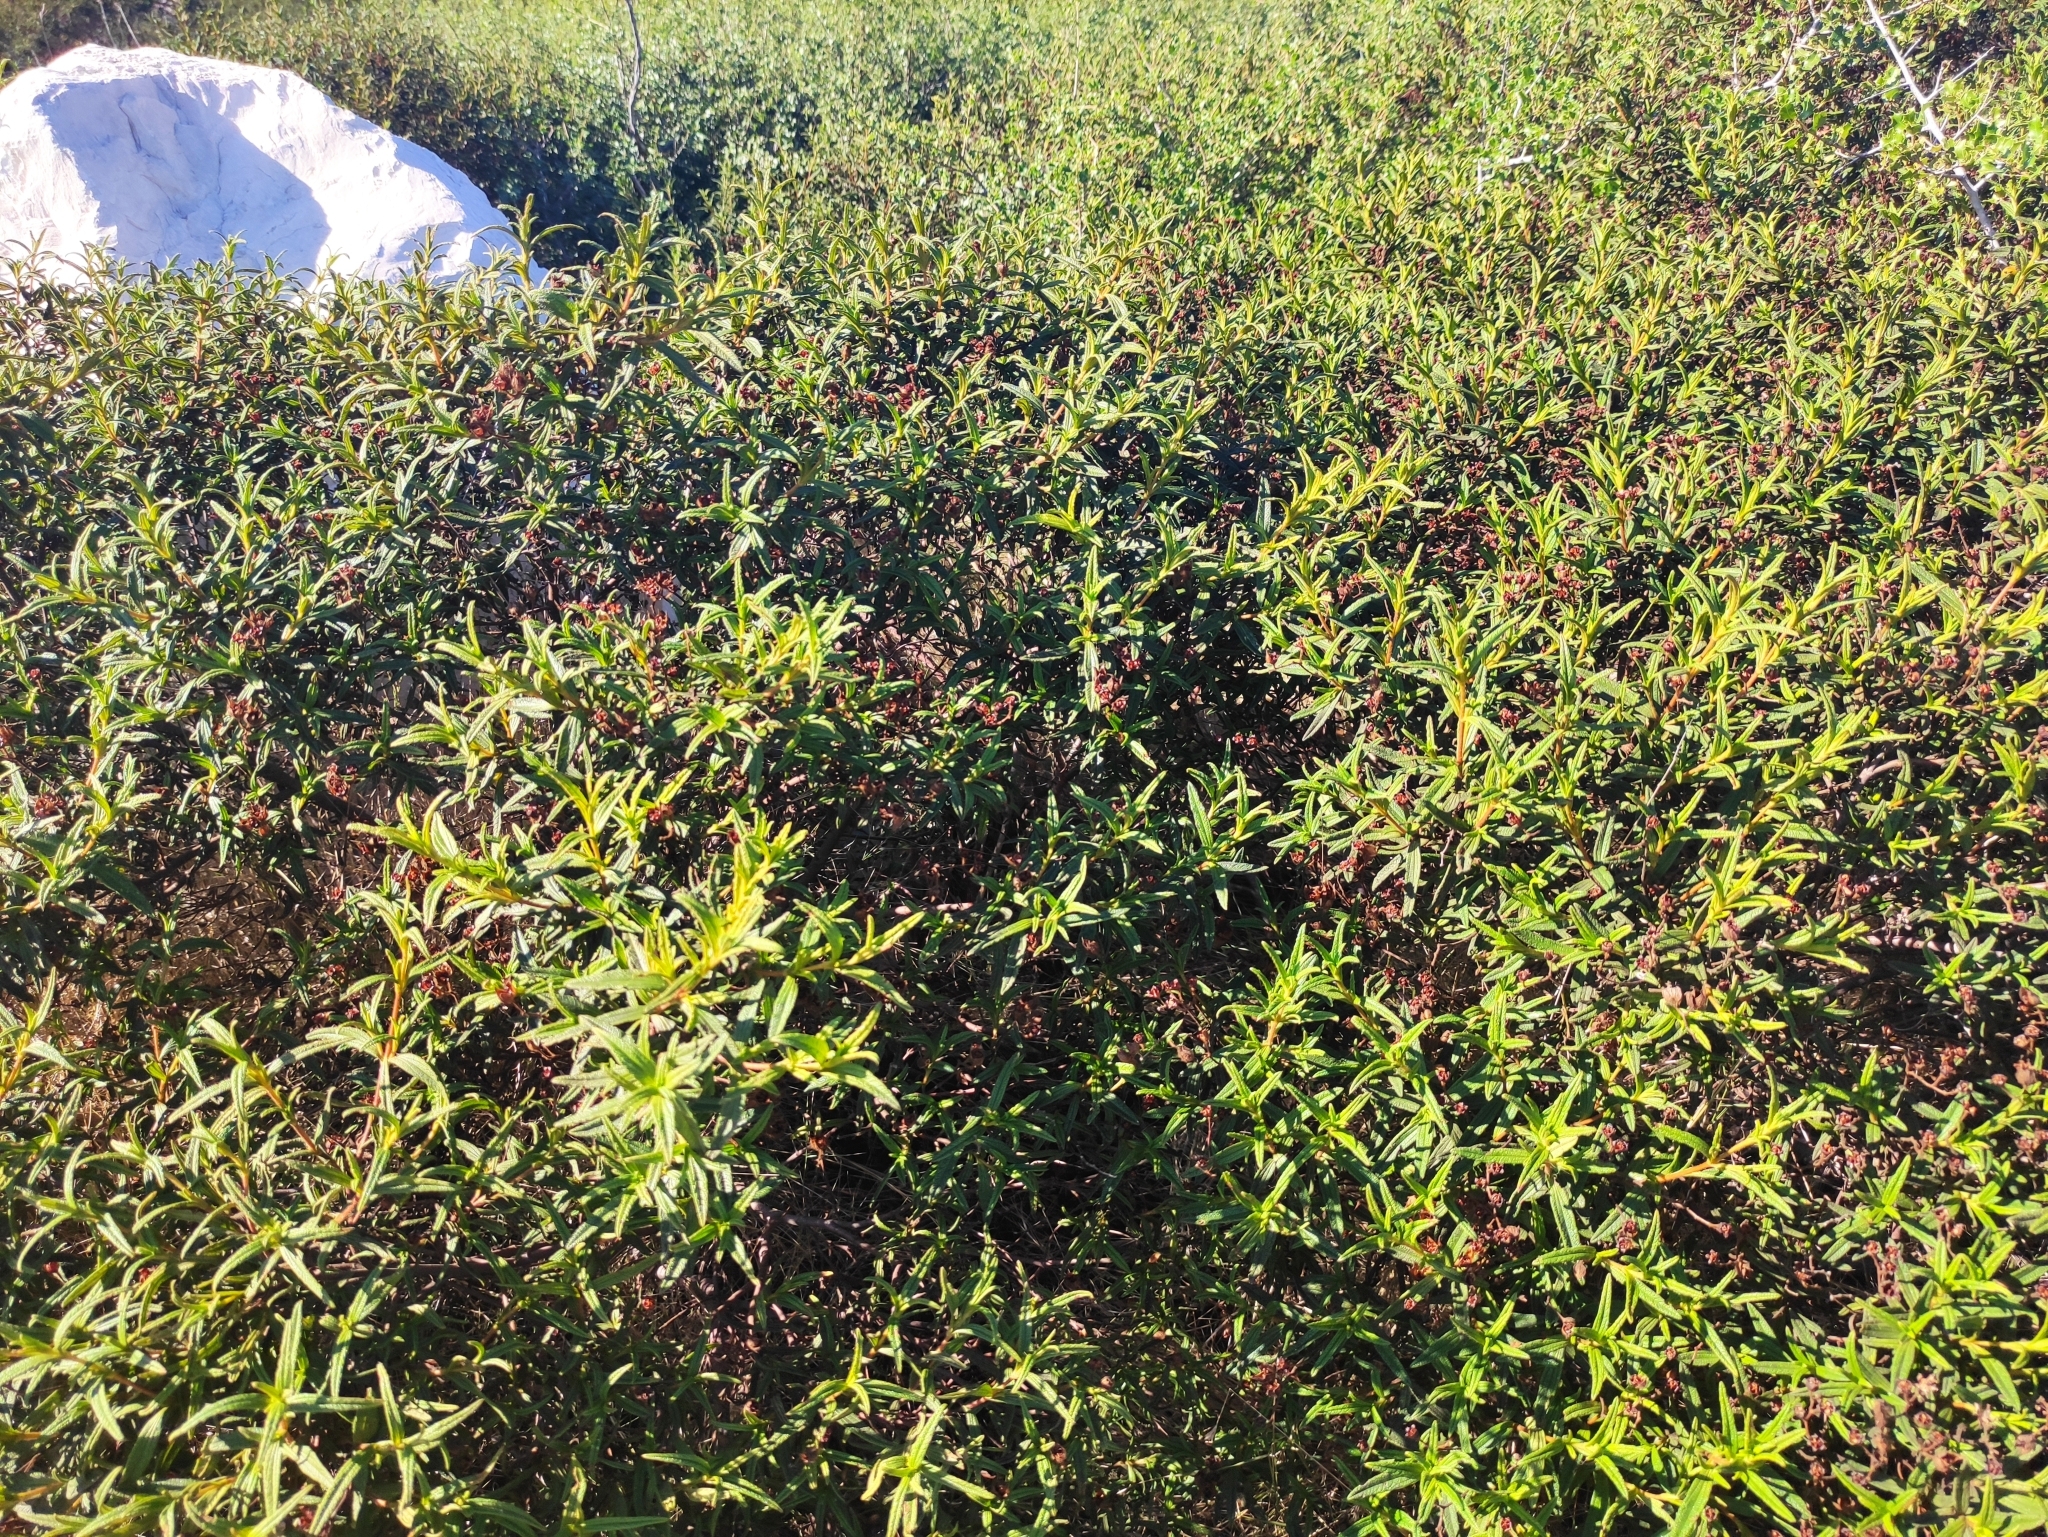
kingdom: Plantae
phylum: Tracheophyta
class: Magnoliopsida
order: Malvales
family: Cistaceae
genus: Cistus
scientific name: Cistus monspeliensis
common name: Montpelier cistus
